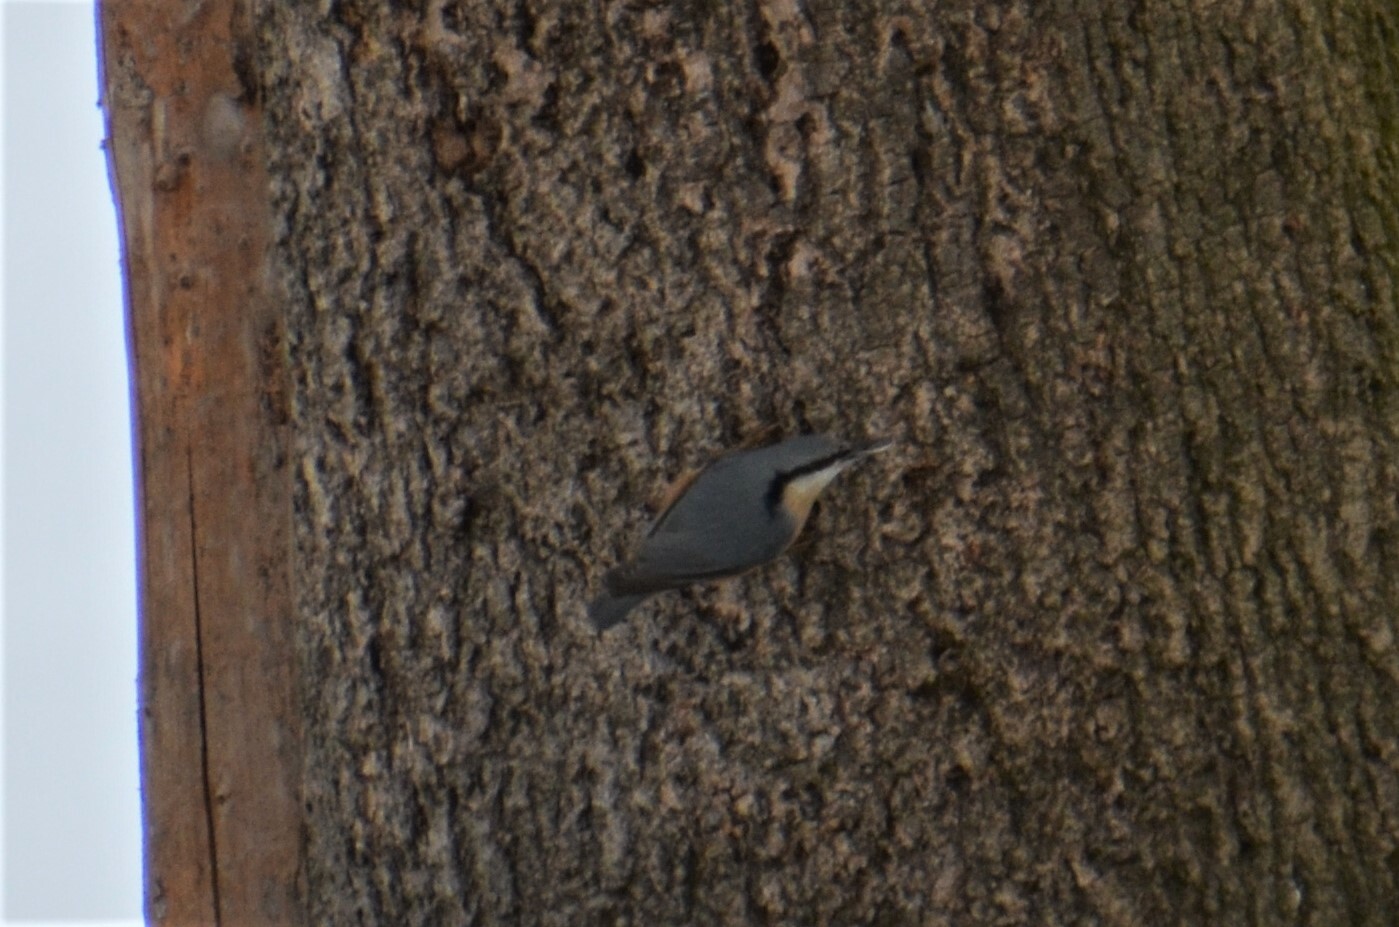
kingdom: Animalia
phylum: Chordata
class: Aves
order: Passeriformes
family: Sittidae
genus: Sitta
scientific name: Sitta europaea
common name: Eurasian nuthatch
